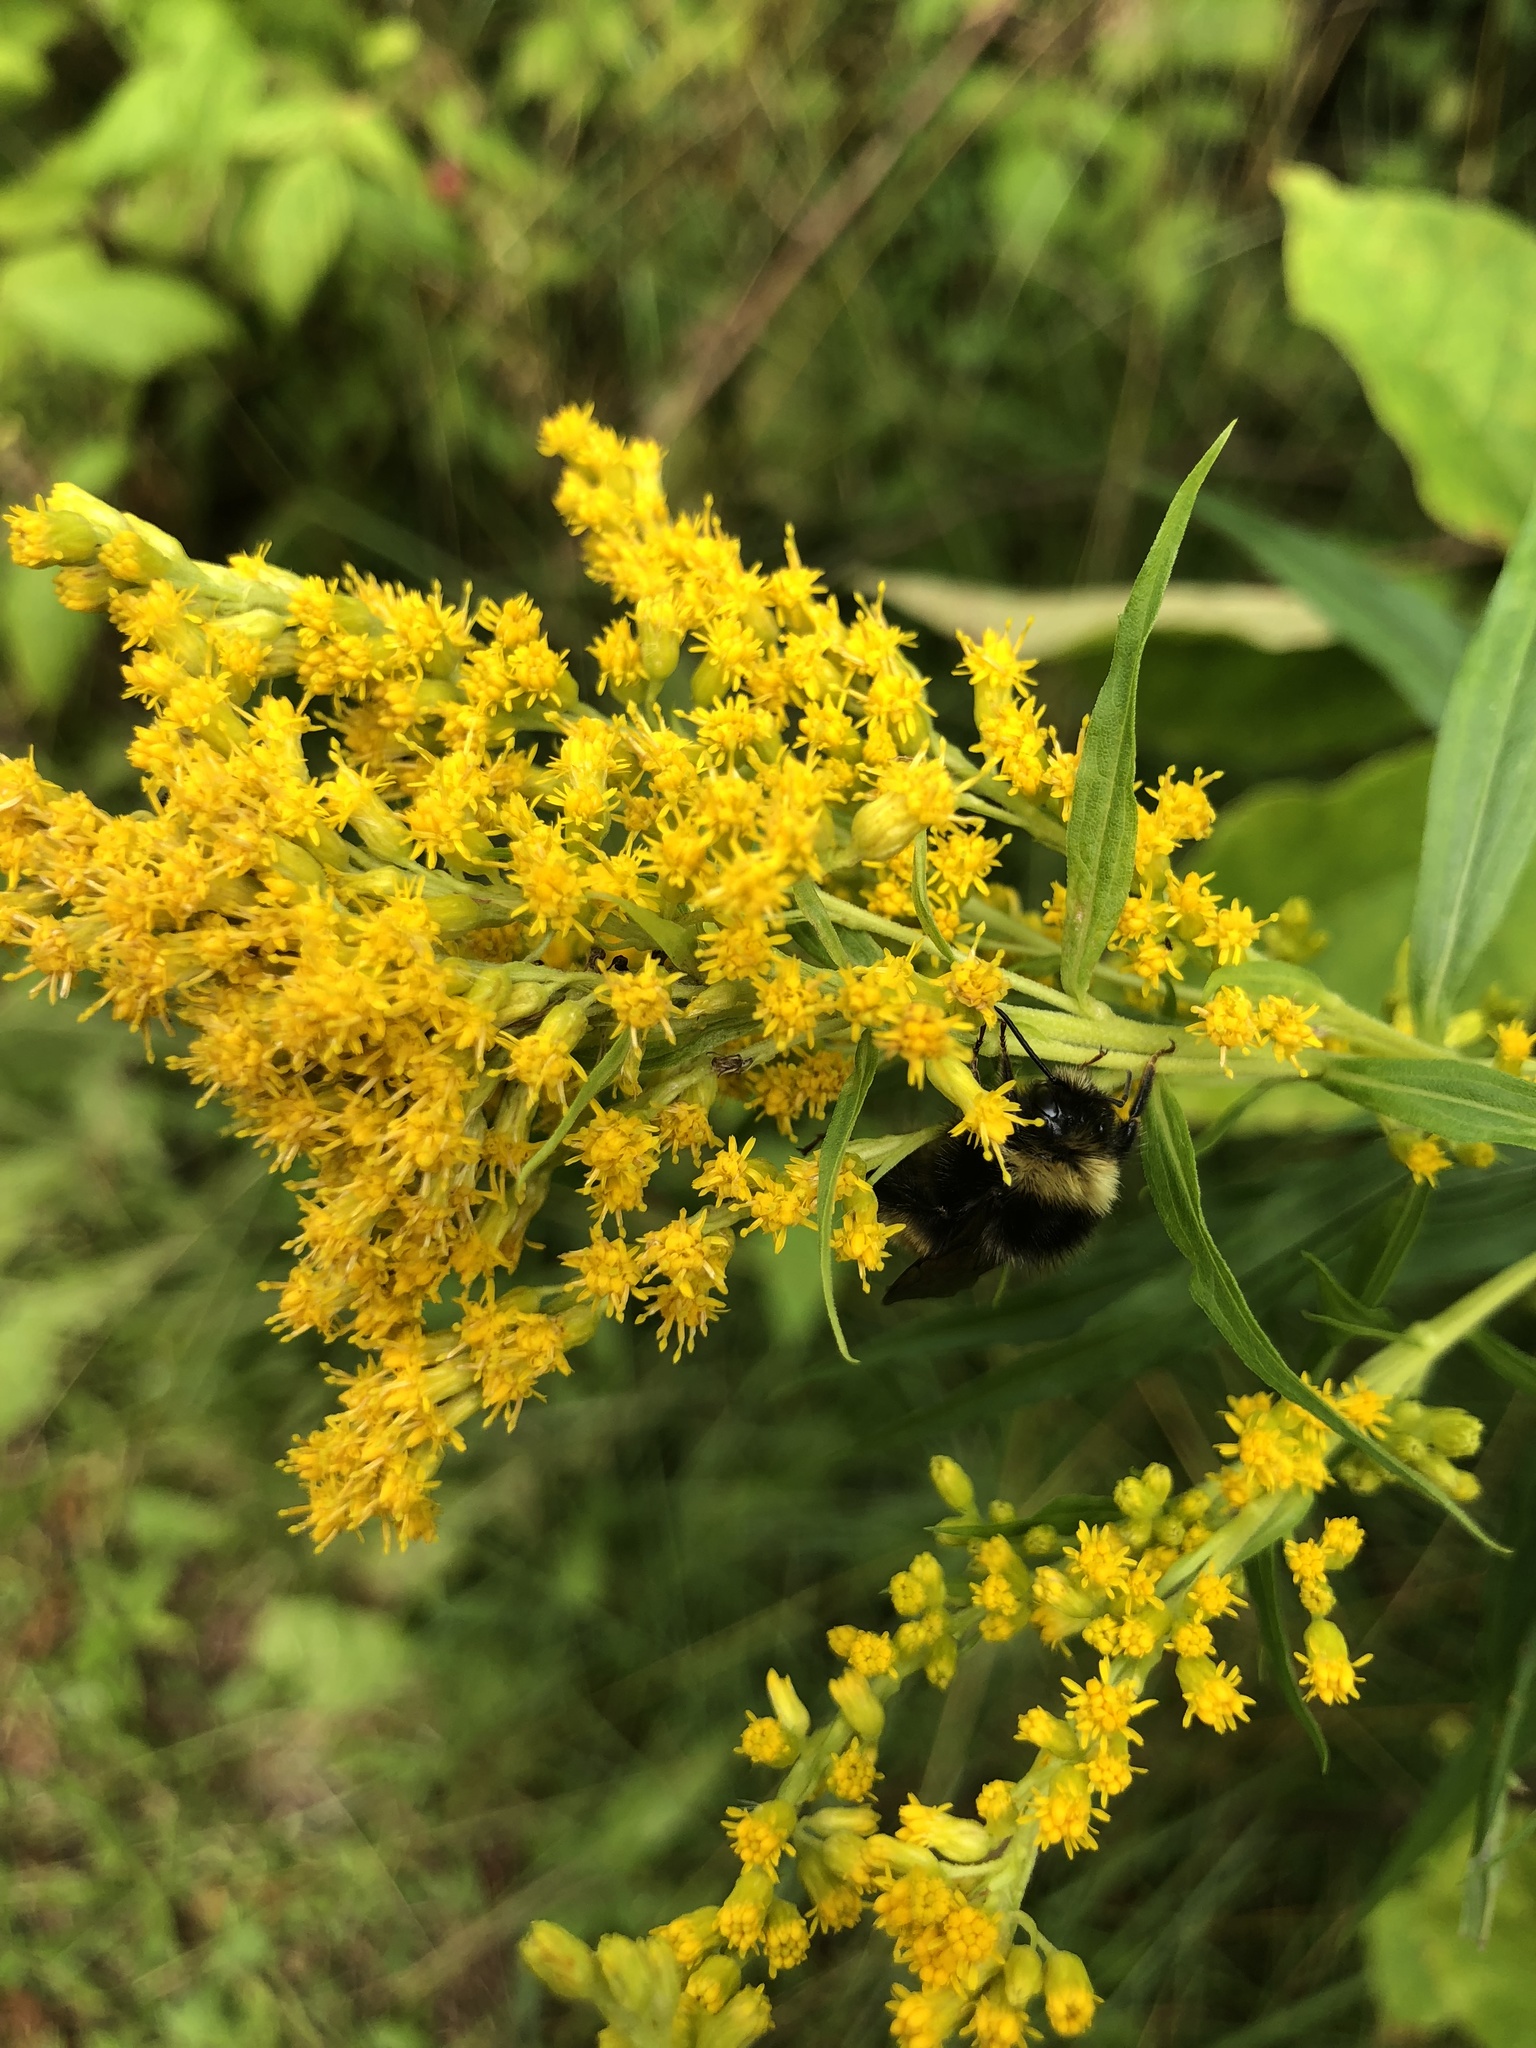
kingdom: Animalia
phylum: Arthropoda
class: Insecta
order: Hymenoptera
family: Apidae
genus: Bombus
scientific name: Bombus terricola
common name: Yellow-banded bumble bee
